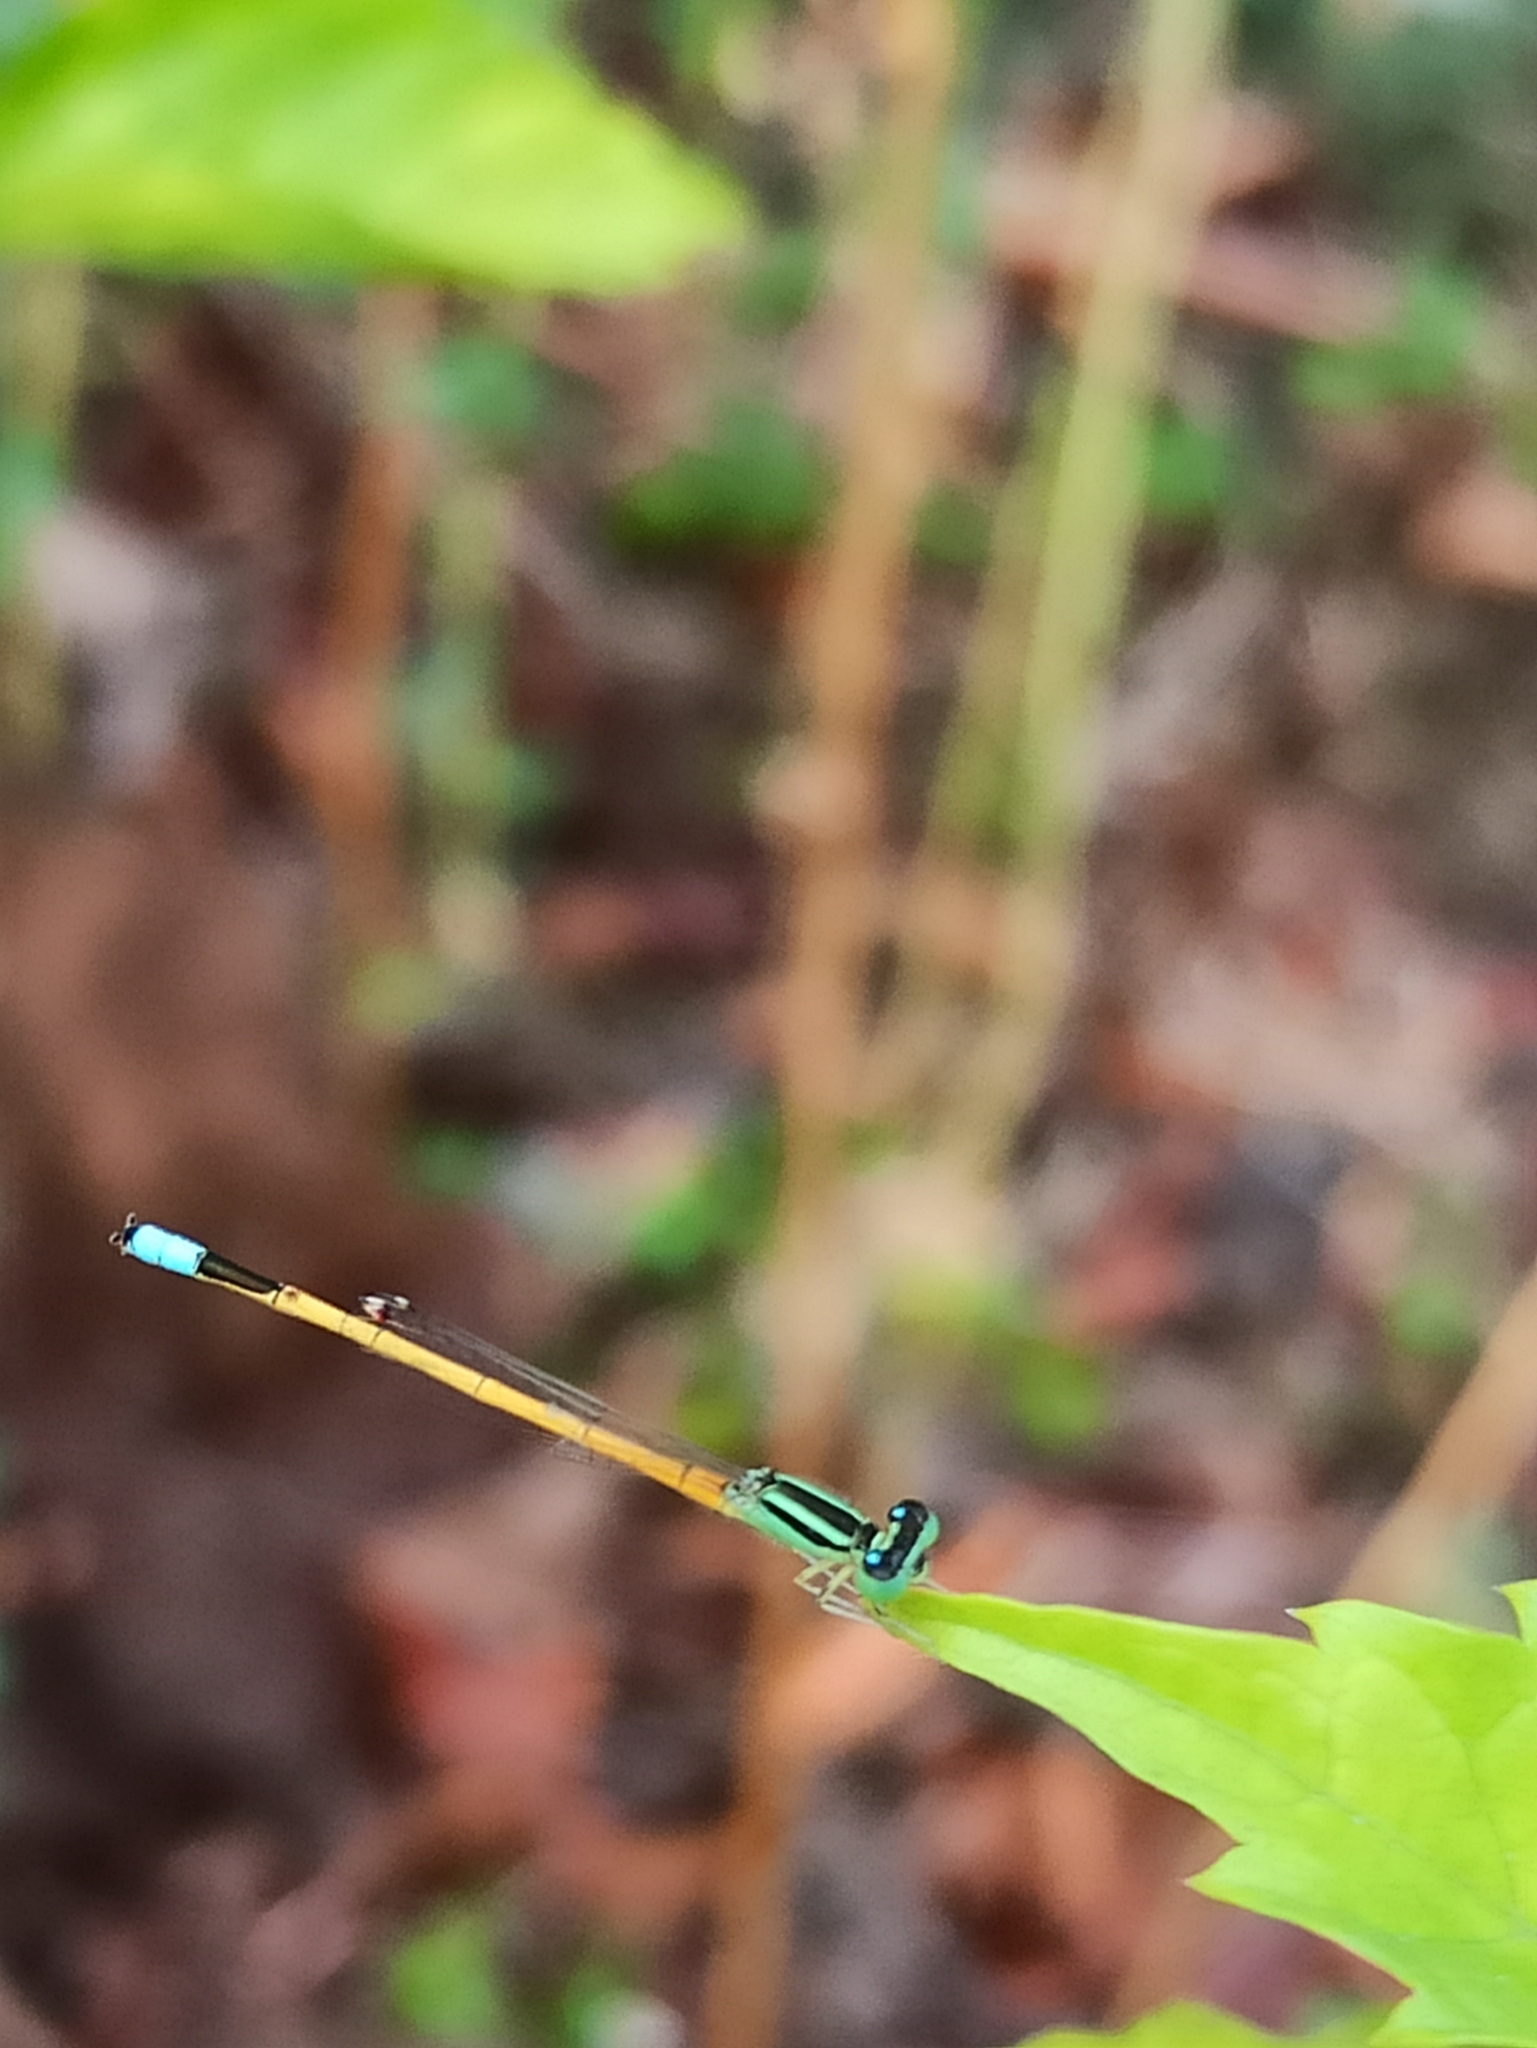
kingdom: Animalia
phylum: Arthropoda
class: Insecta
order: Odonata
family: Coenagrionidae
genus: Ischnura
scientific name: Ischnura rubilio
